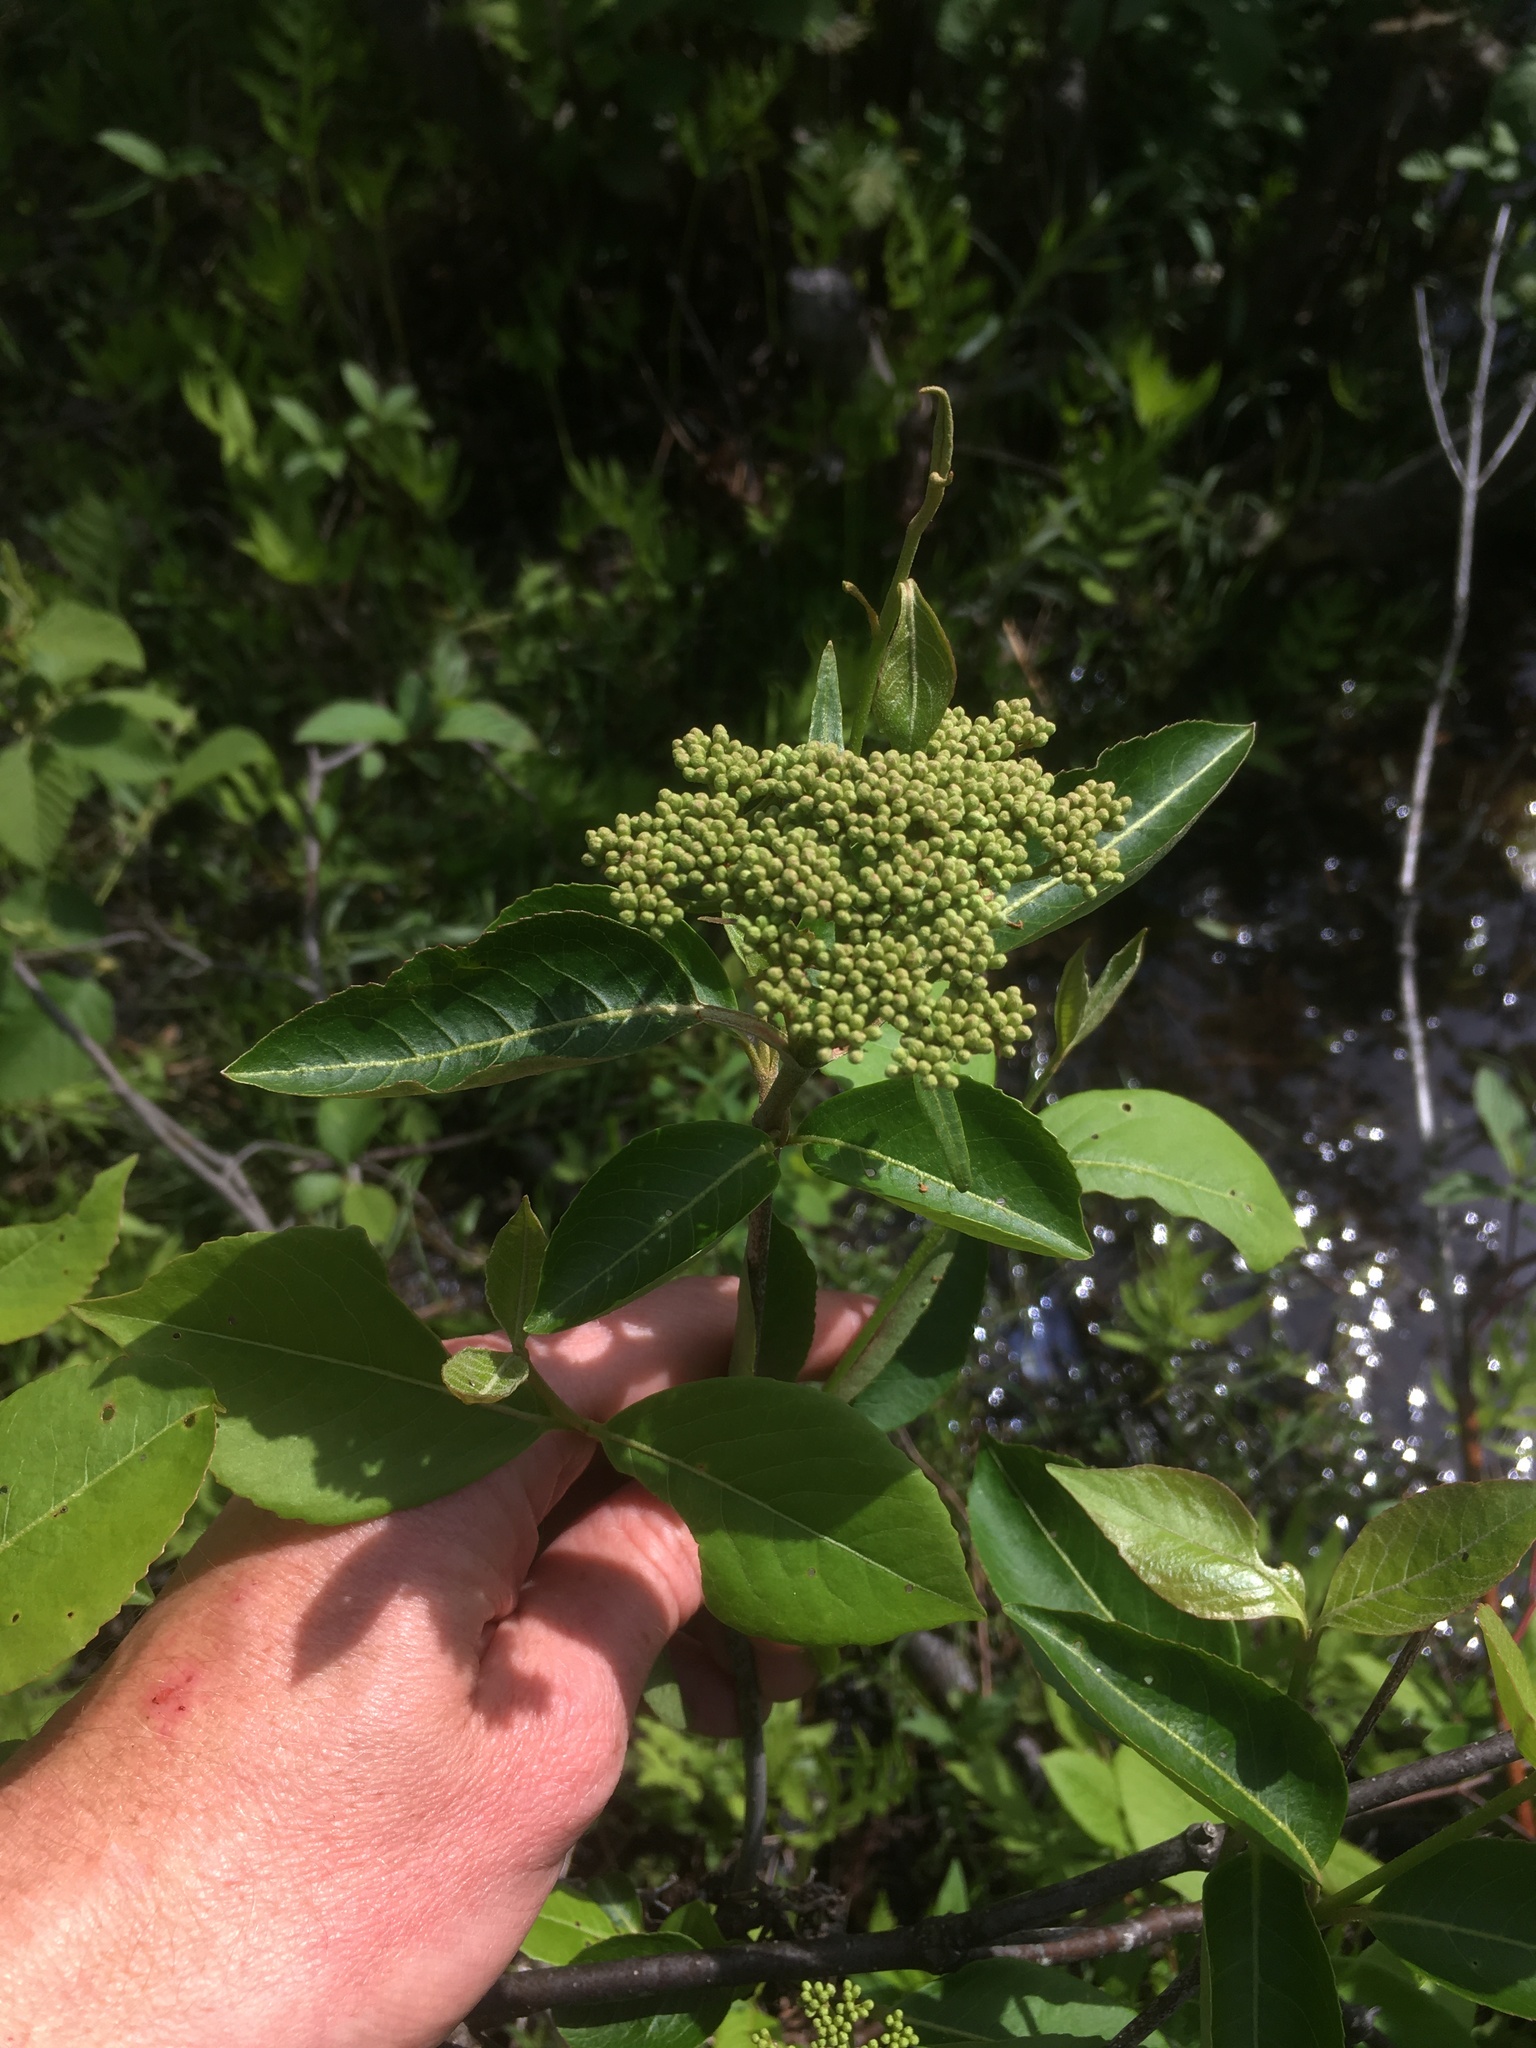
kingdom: Plantae
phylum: Tracheophyta
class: Magnoliopsida
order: Dipsacales
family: Viburnaceae
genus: Viburnum
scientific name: Viburnum cassinoides
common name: Swamp haw
